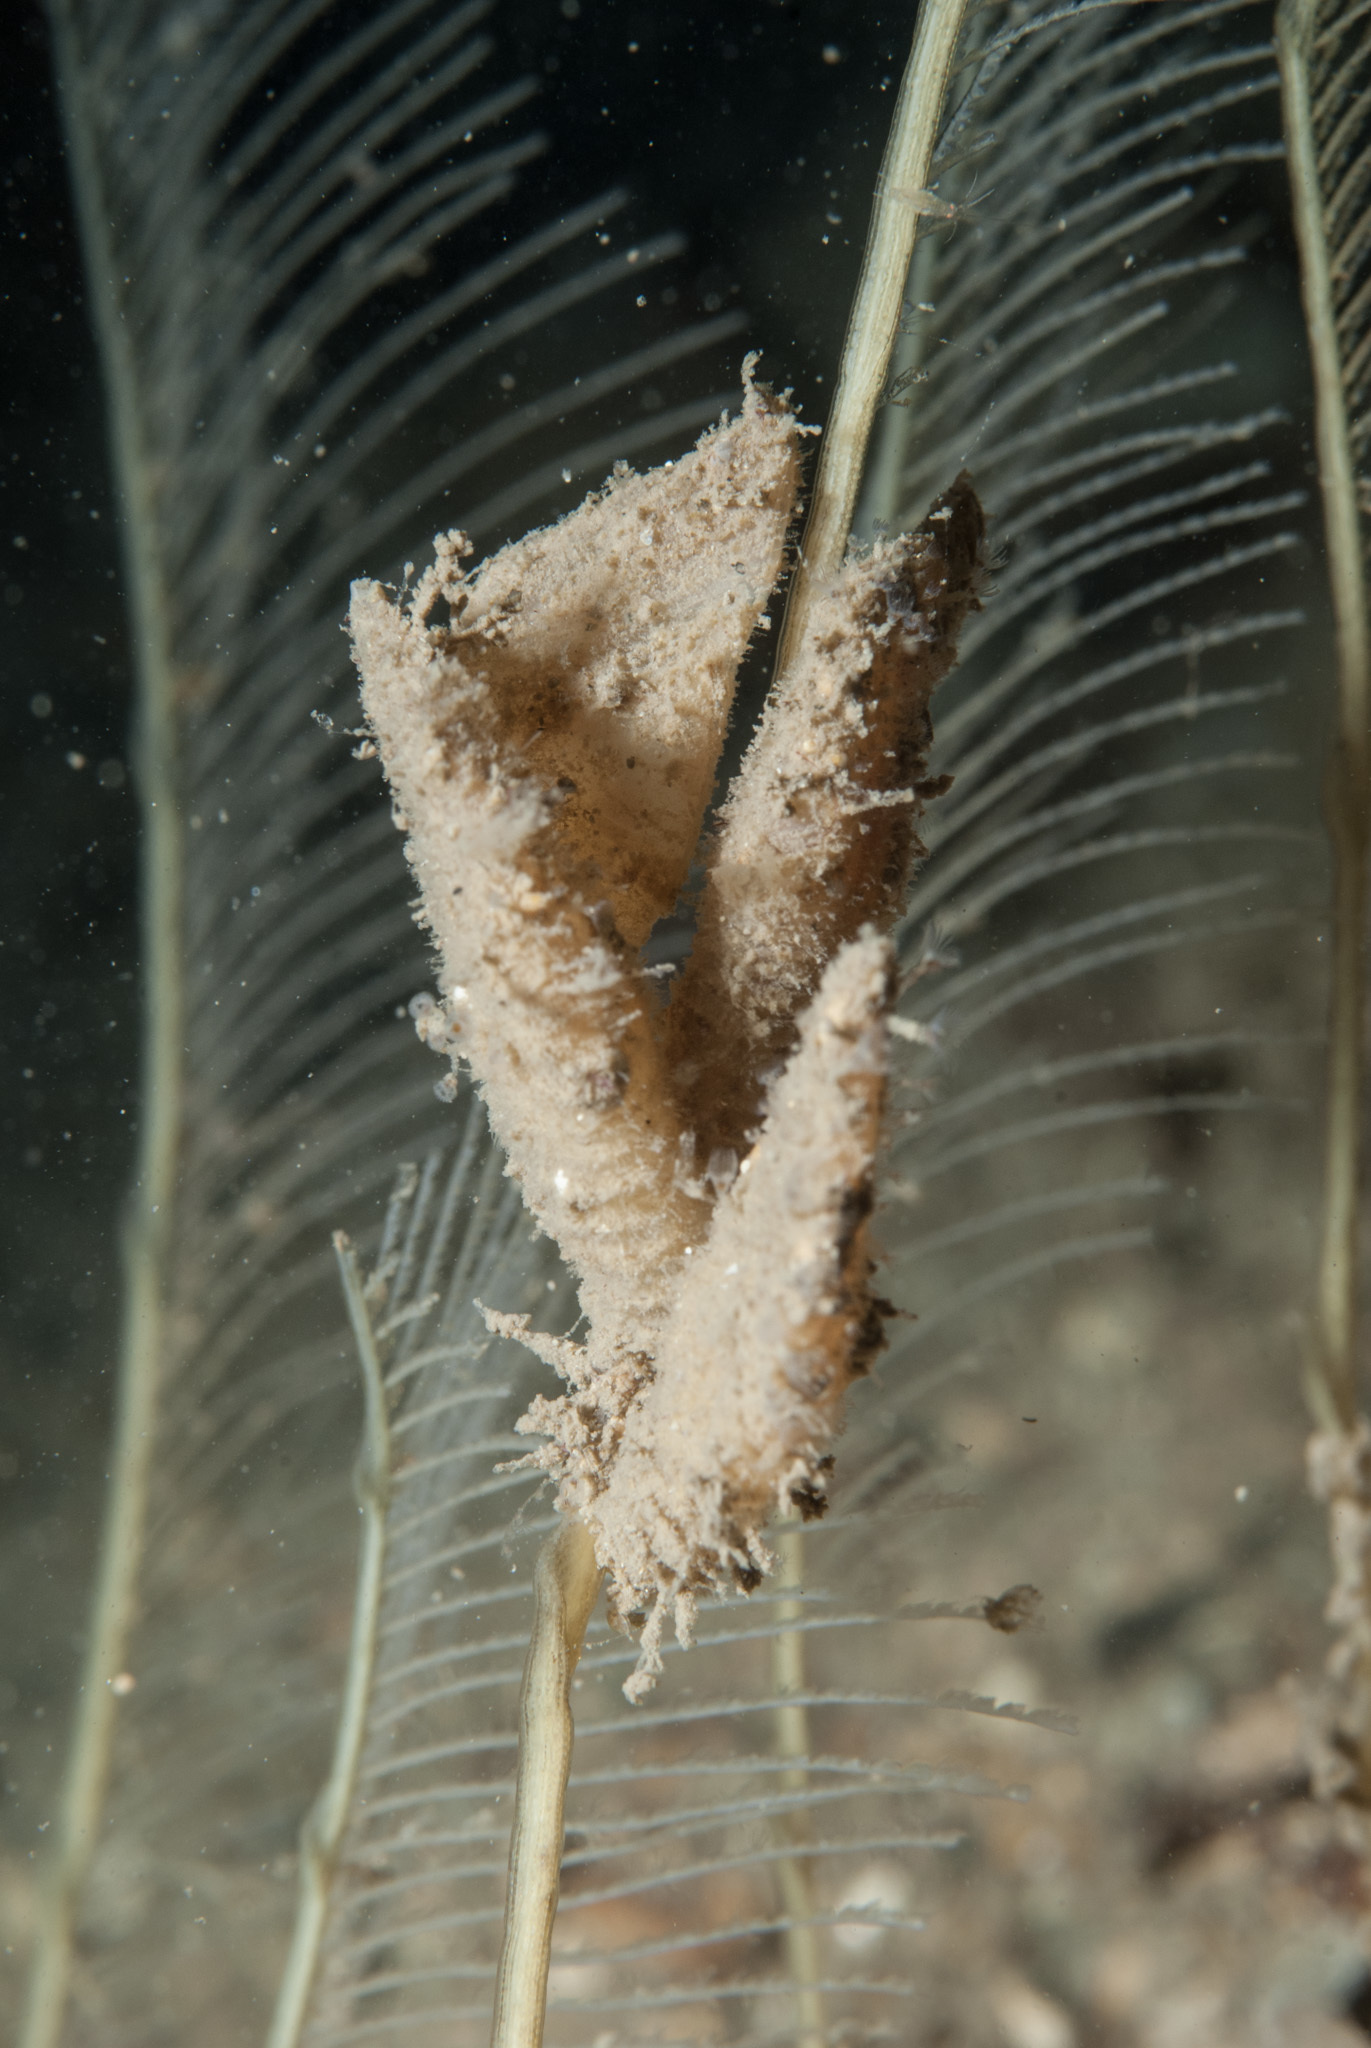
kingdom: Animalia
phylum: Arthropoda
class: Maxillopoda
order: Pedunculata
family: Scalpellidae
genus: Scalpellum
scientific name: Scalpellum scalpellum
